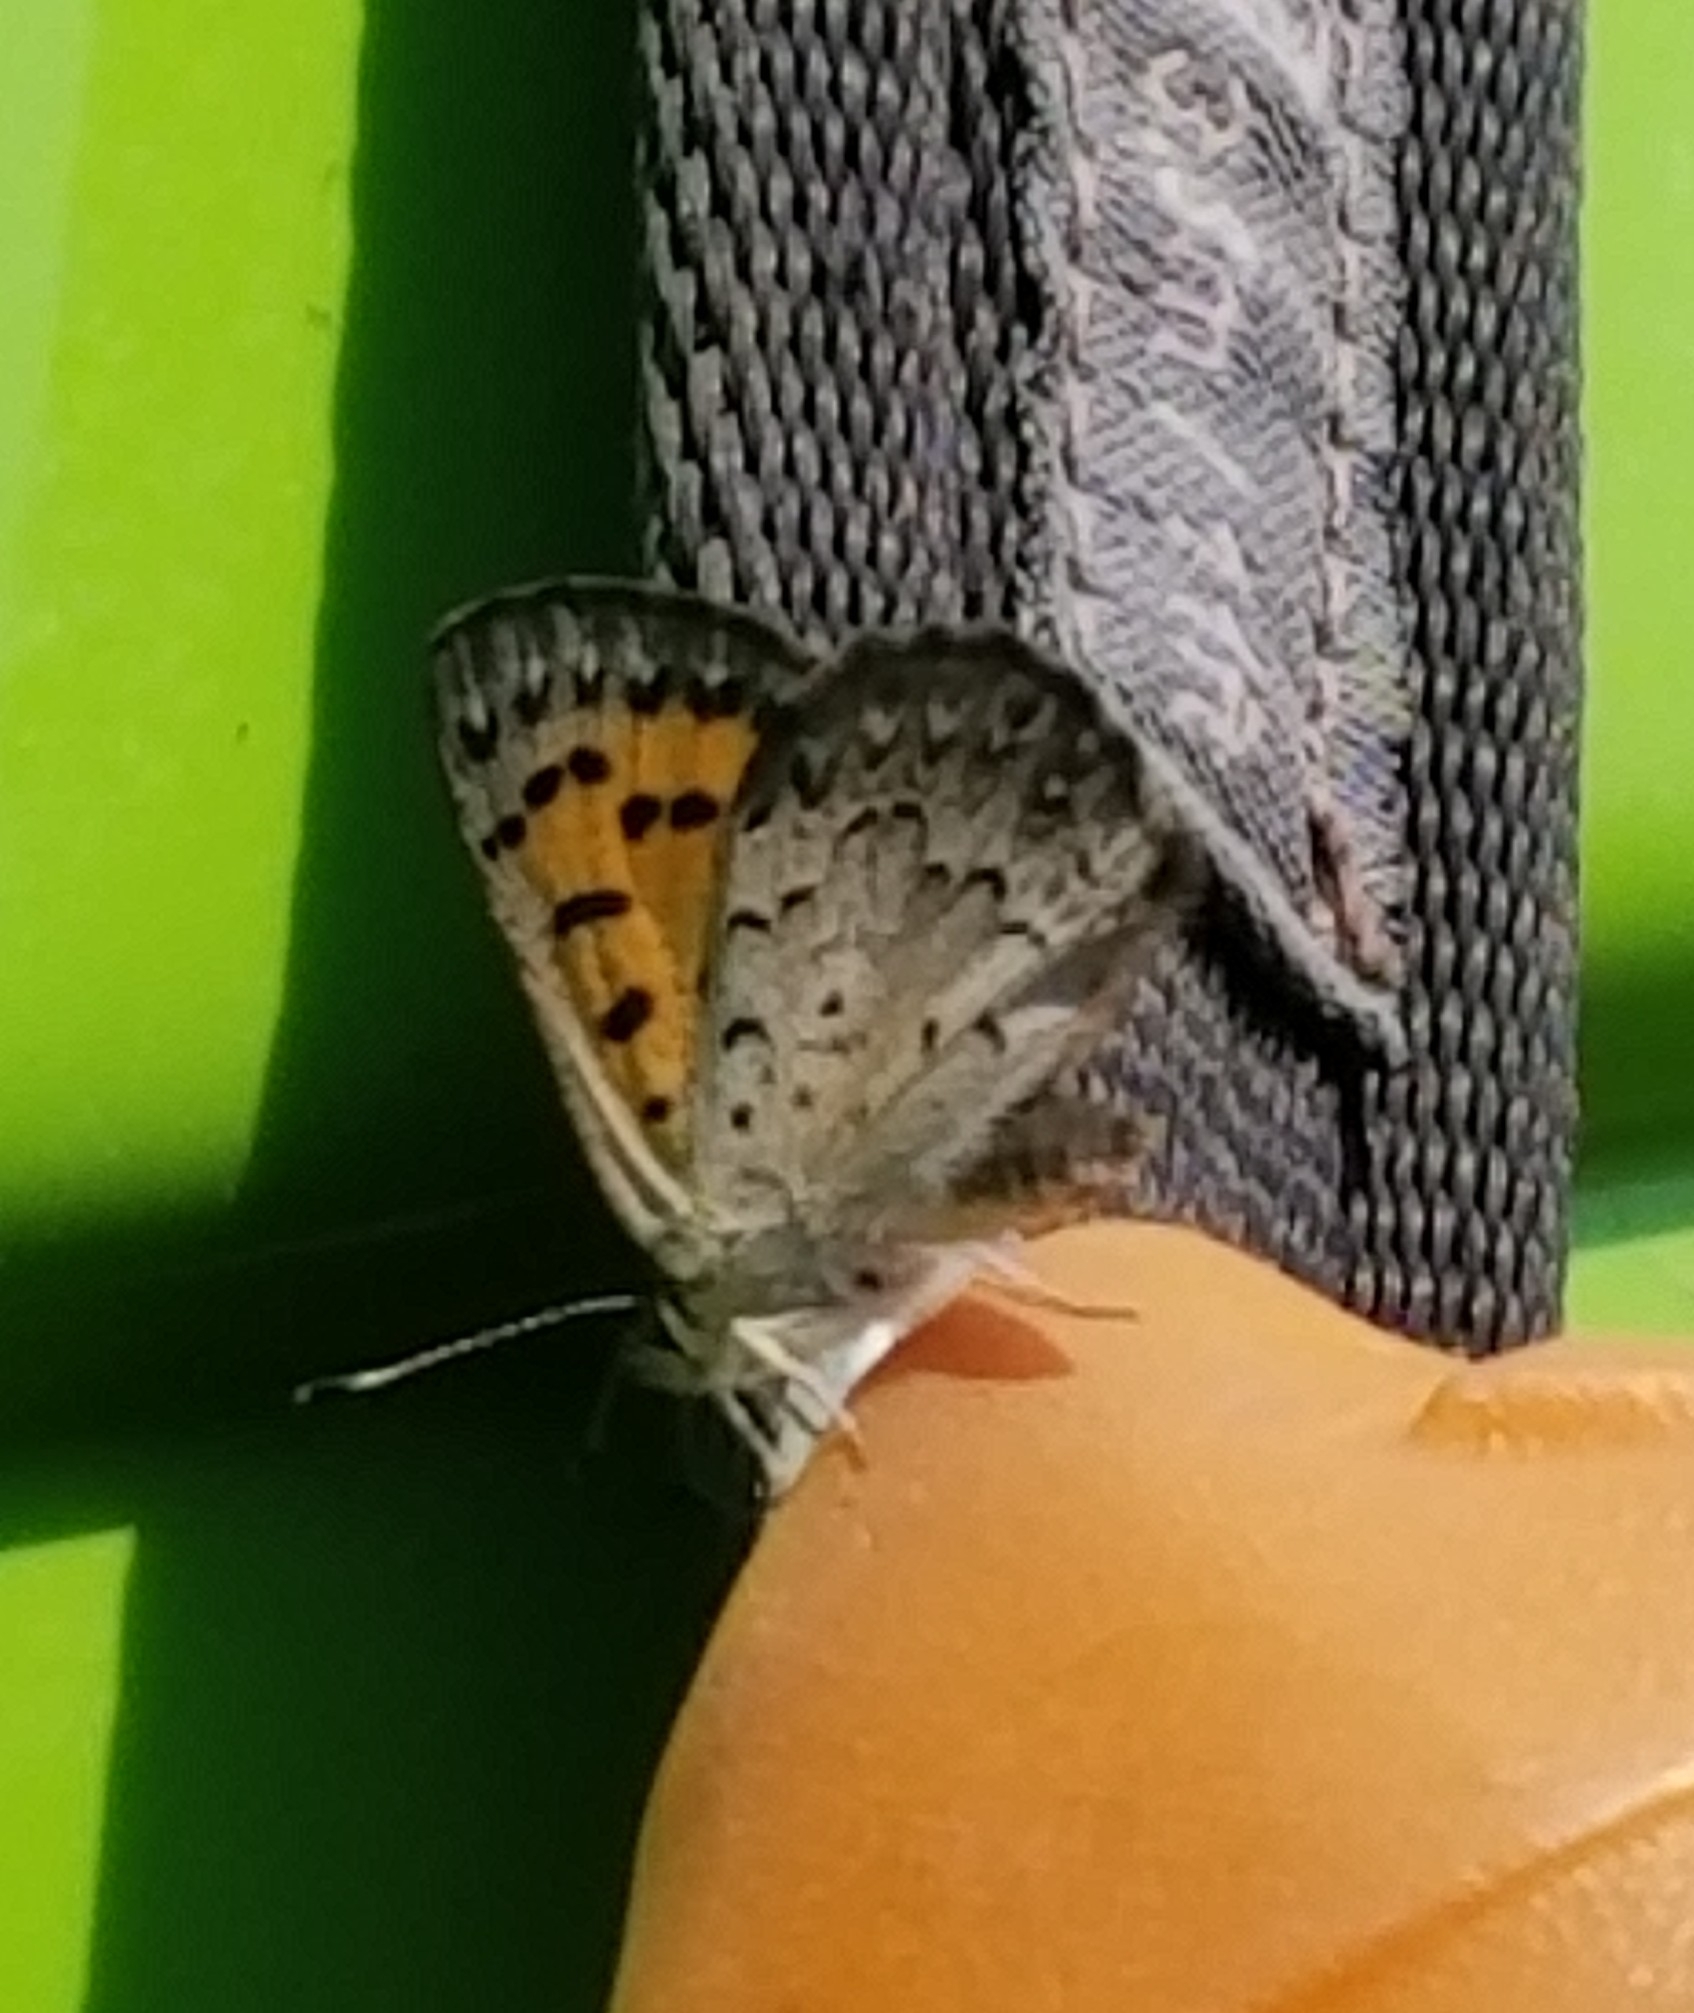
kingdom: Animalia
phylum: Arthropoda
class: Insecta
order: Lepidoptera
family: Lycaenidae
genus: Tharsalea
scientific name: Tharsalea mariposa
